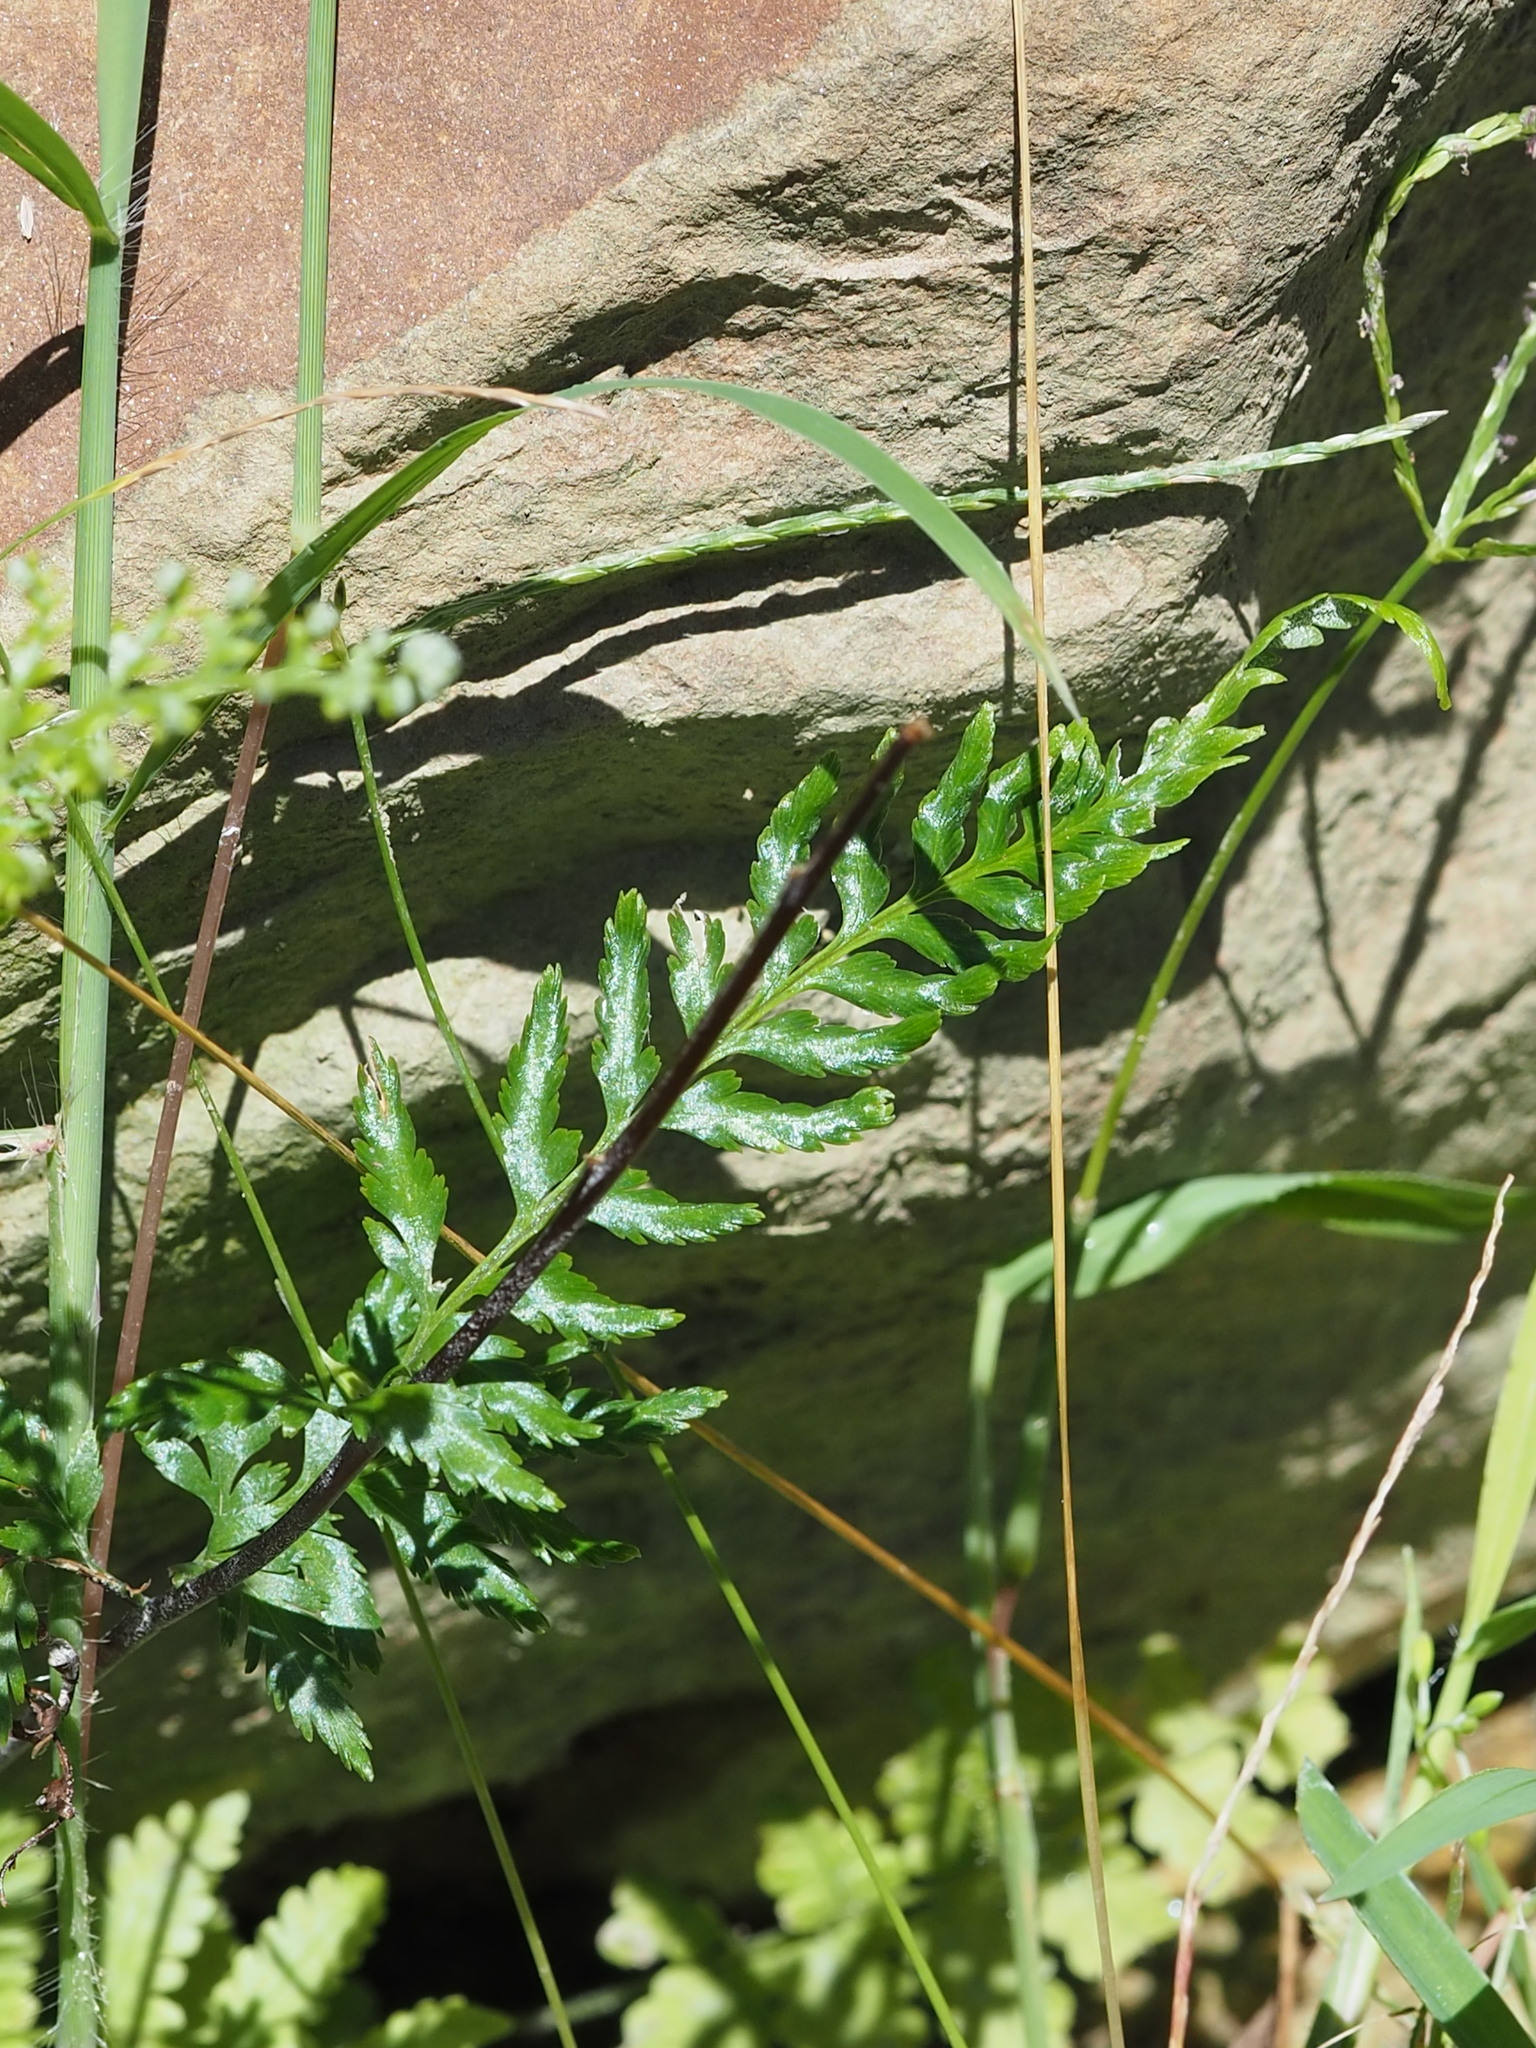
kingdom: Plantae
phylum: Tracheophyta
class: Polypodiopsida
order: Polypodiales
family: Pteridaceae
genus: Pityrogramma
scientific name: Pityrogramma calomelanos
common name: Dixie silverback fern
